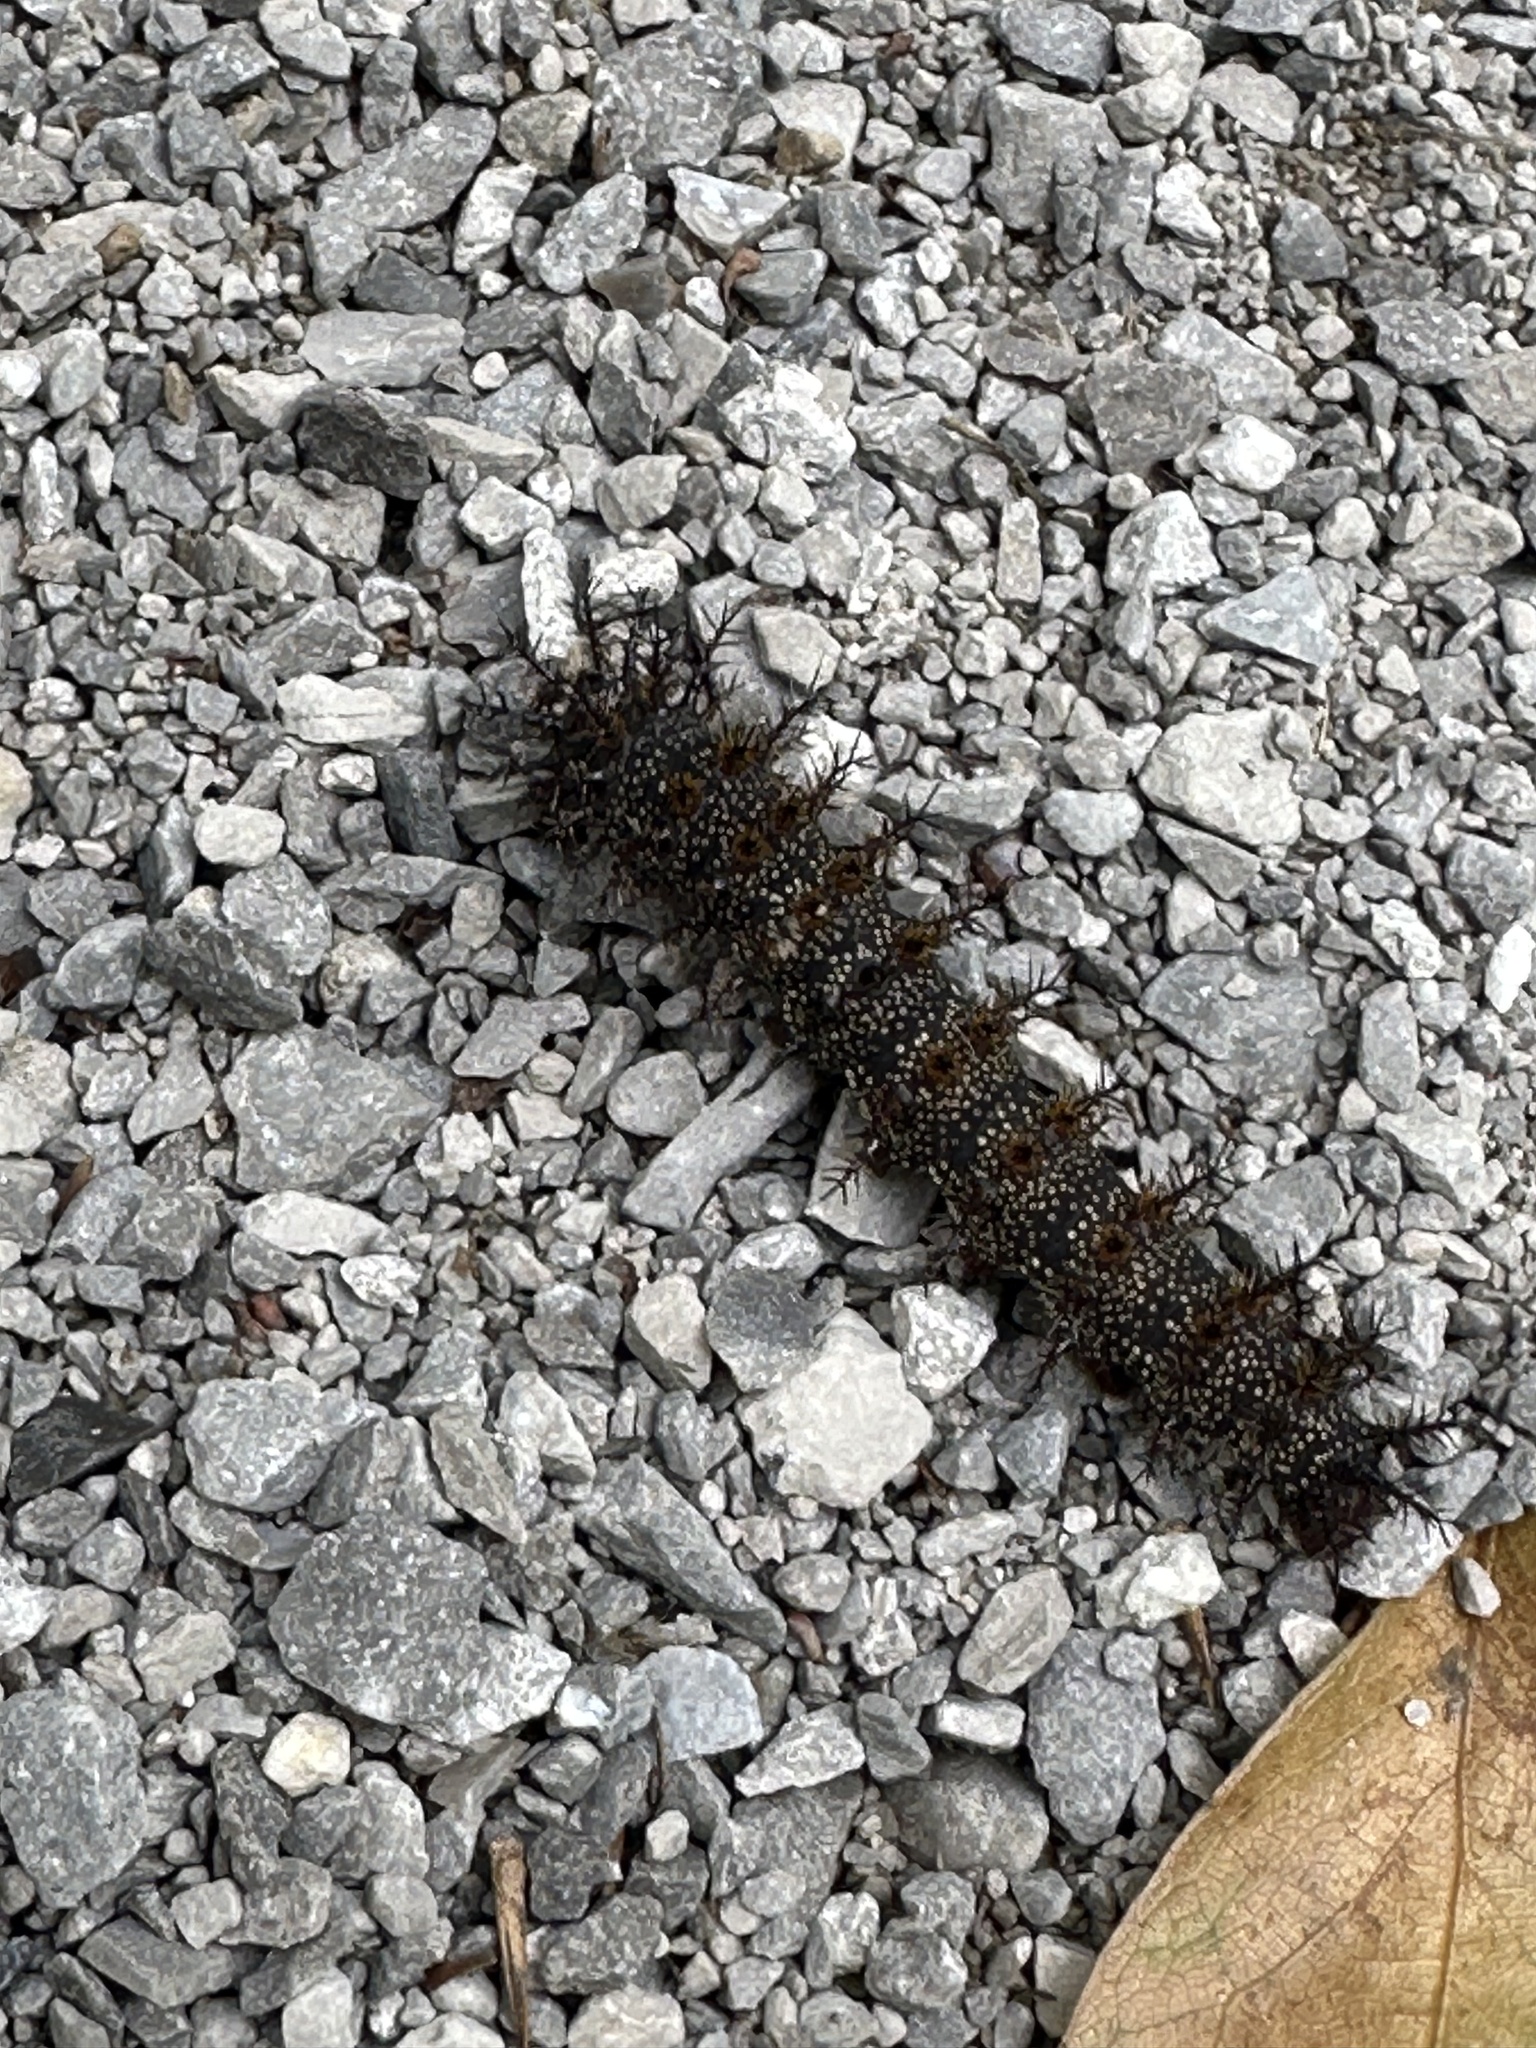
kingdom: Animalia
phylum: Arthropoda
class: Insecta
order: Lepidoptera
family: Saturniidae
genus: Hemileuca
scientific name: Hemileuca maia
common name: Eastern buckmoth
